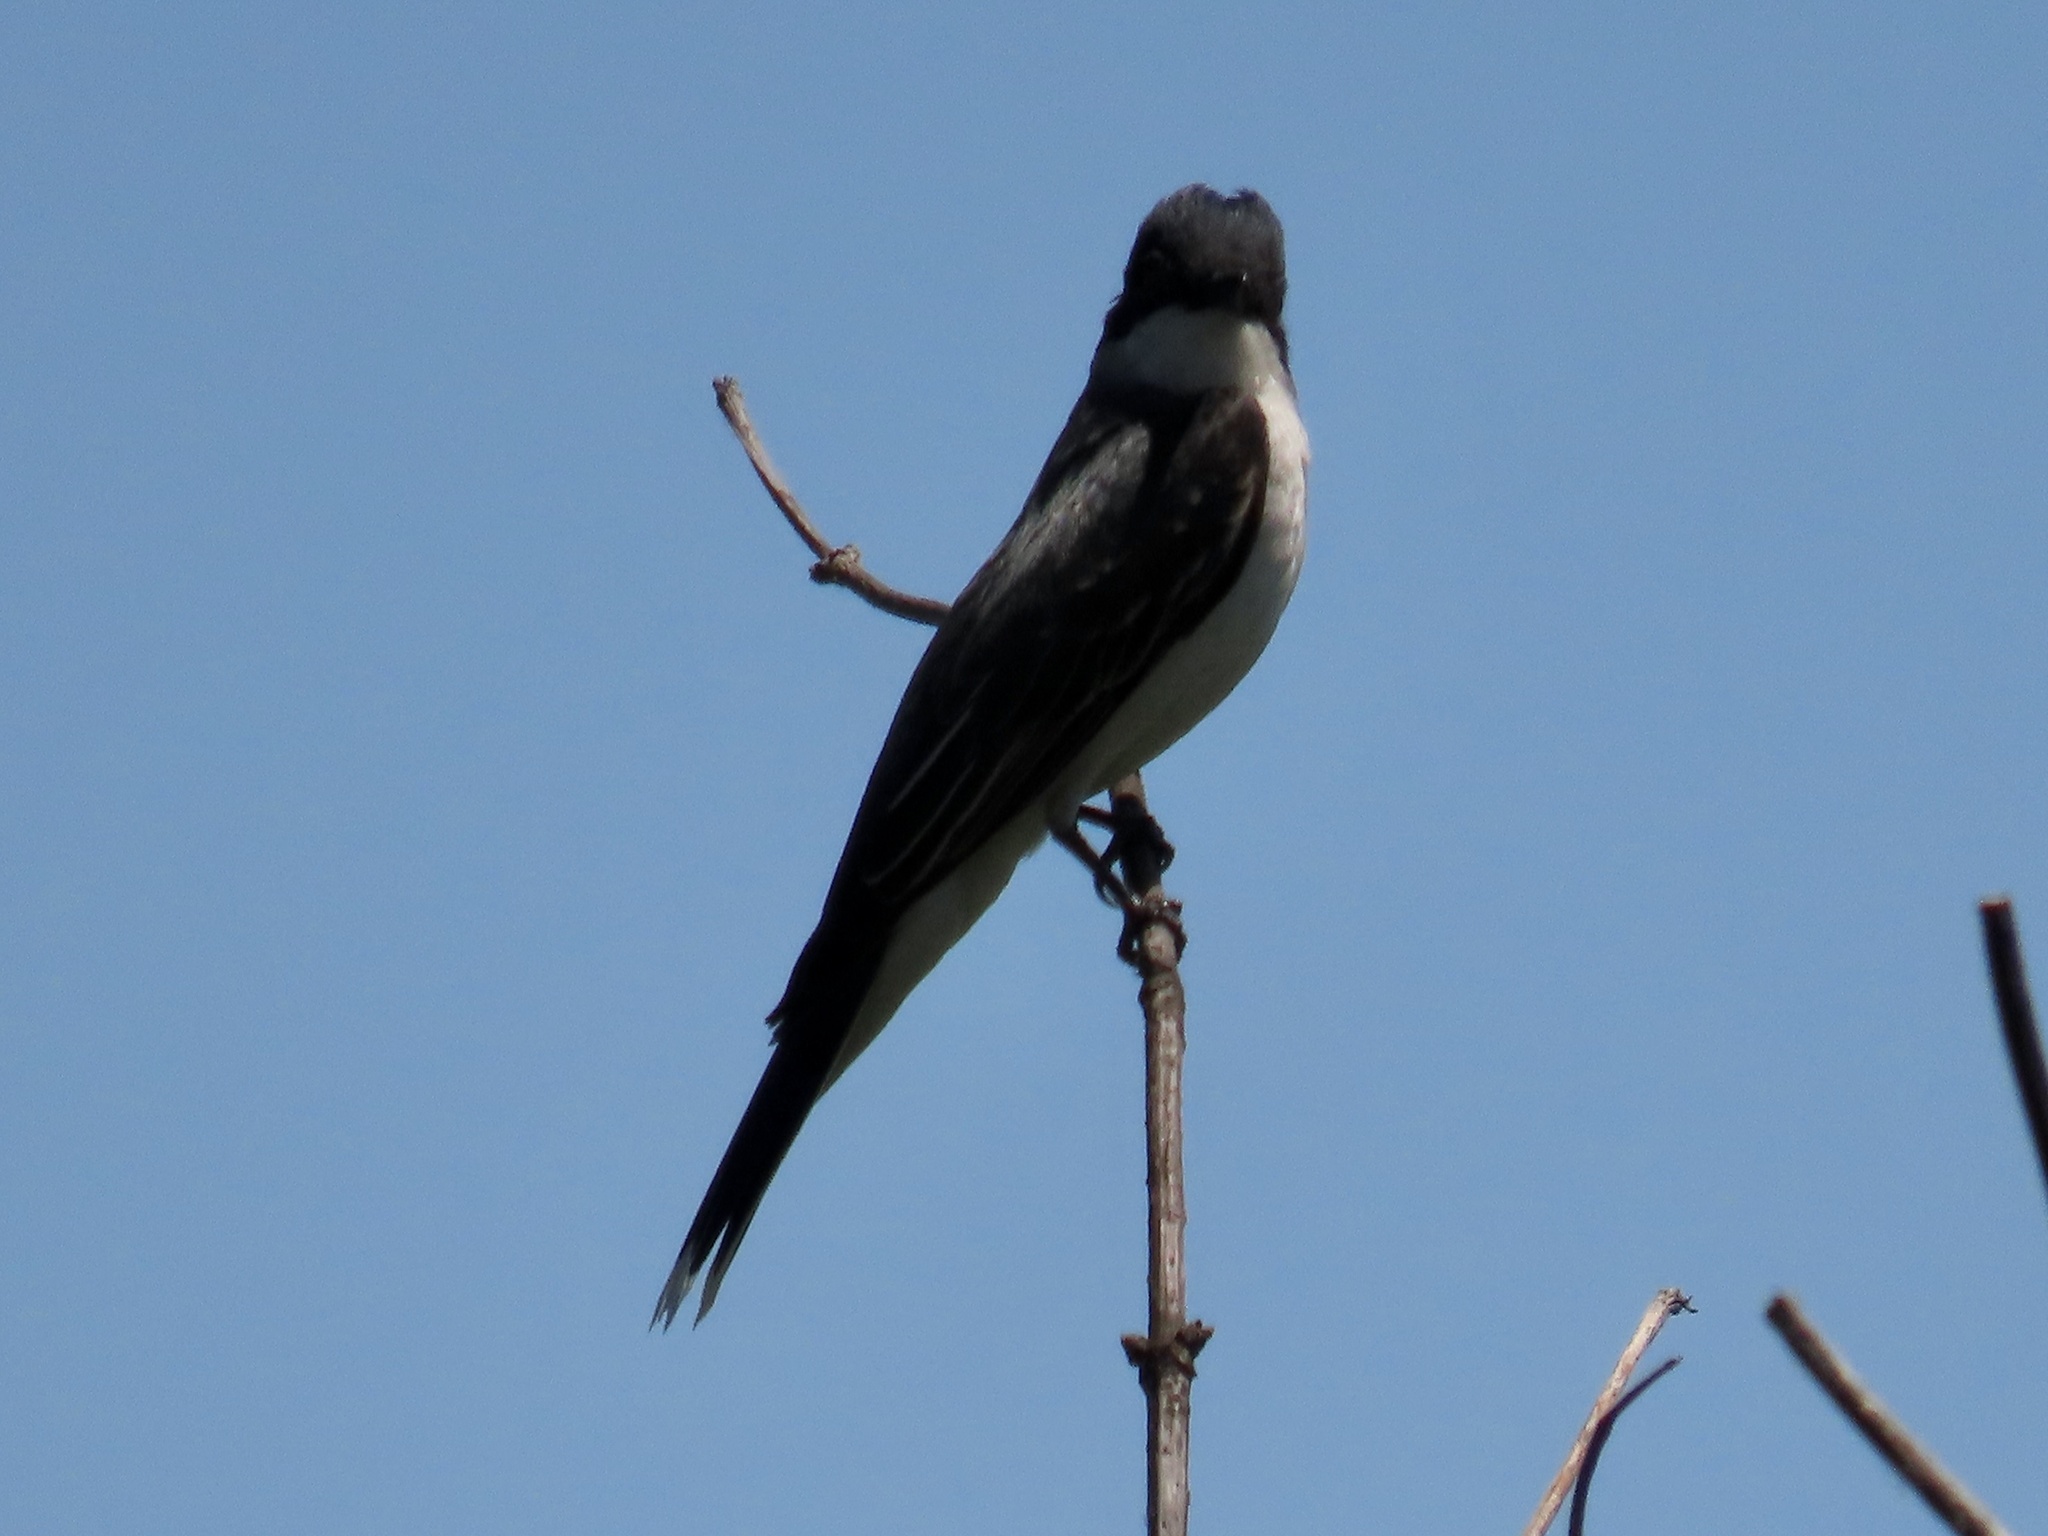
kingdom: Animalia
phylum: Chordata
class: Aves
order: Passeriformes
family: Tyrannidae
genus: Tyrannus
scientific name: Tyrannus tyrannus
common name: Eastern kingbird
